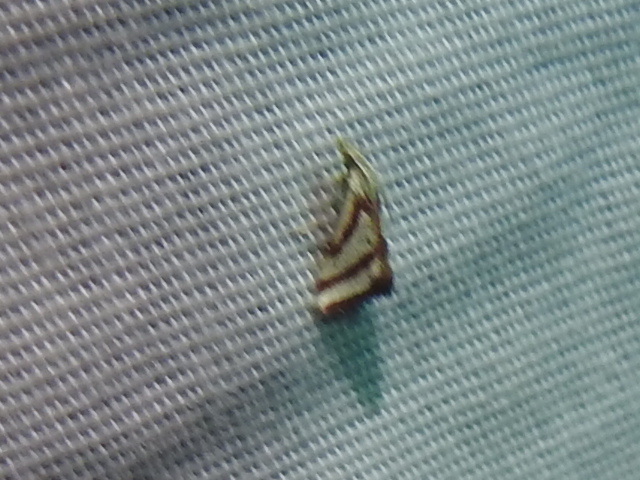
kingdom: Animalia
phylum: Arthropoda
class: Insecta
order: Lepidoptera
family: Crambidae
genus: Microtheoris
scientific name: Microtheoris vibicalis
